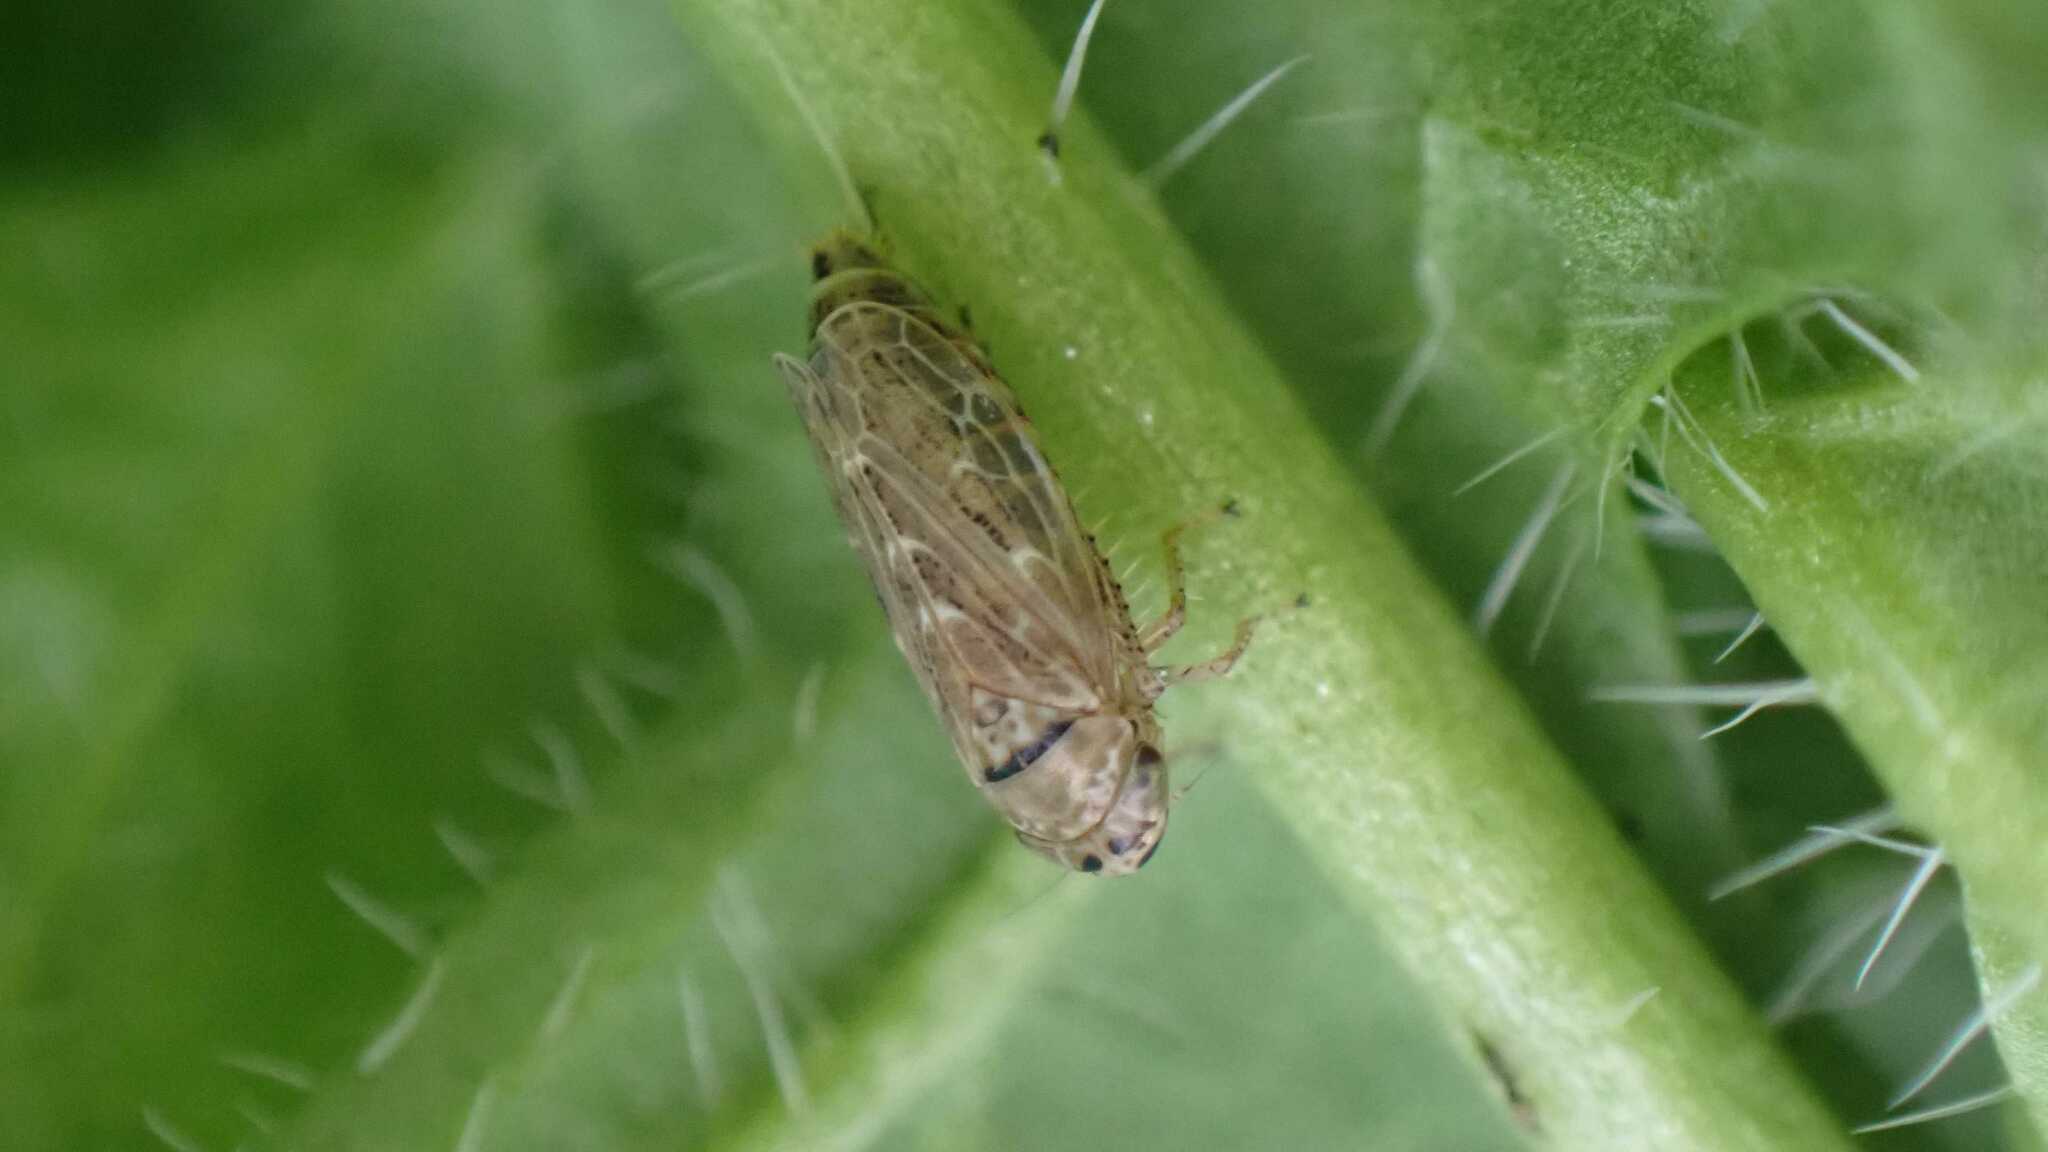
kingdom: Animalia
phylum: Arthropoda
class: Insecta
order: Hemiptera
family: Cicadellidae
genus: Euscelidius
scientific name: Euscelidius
